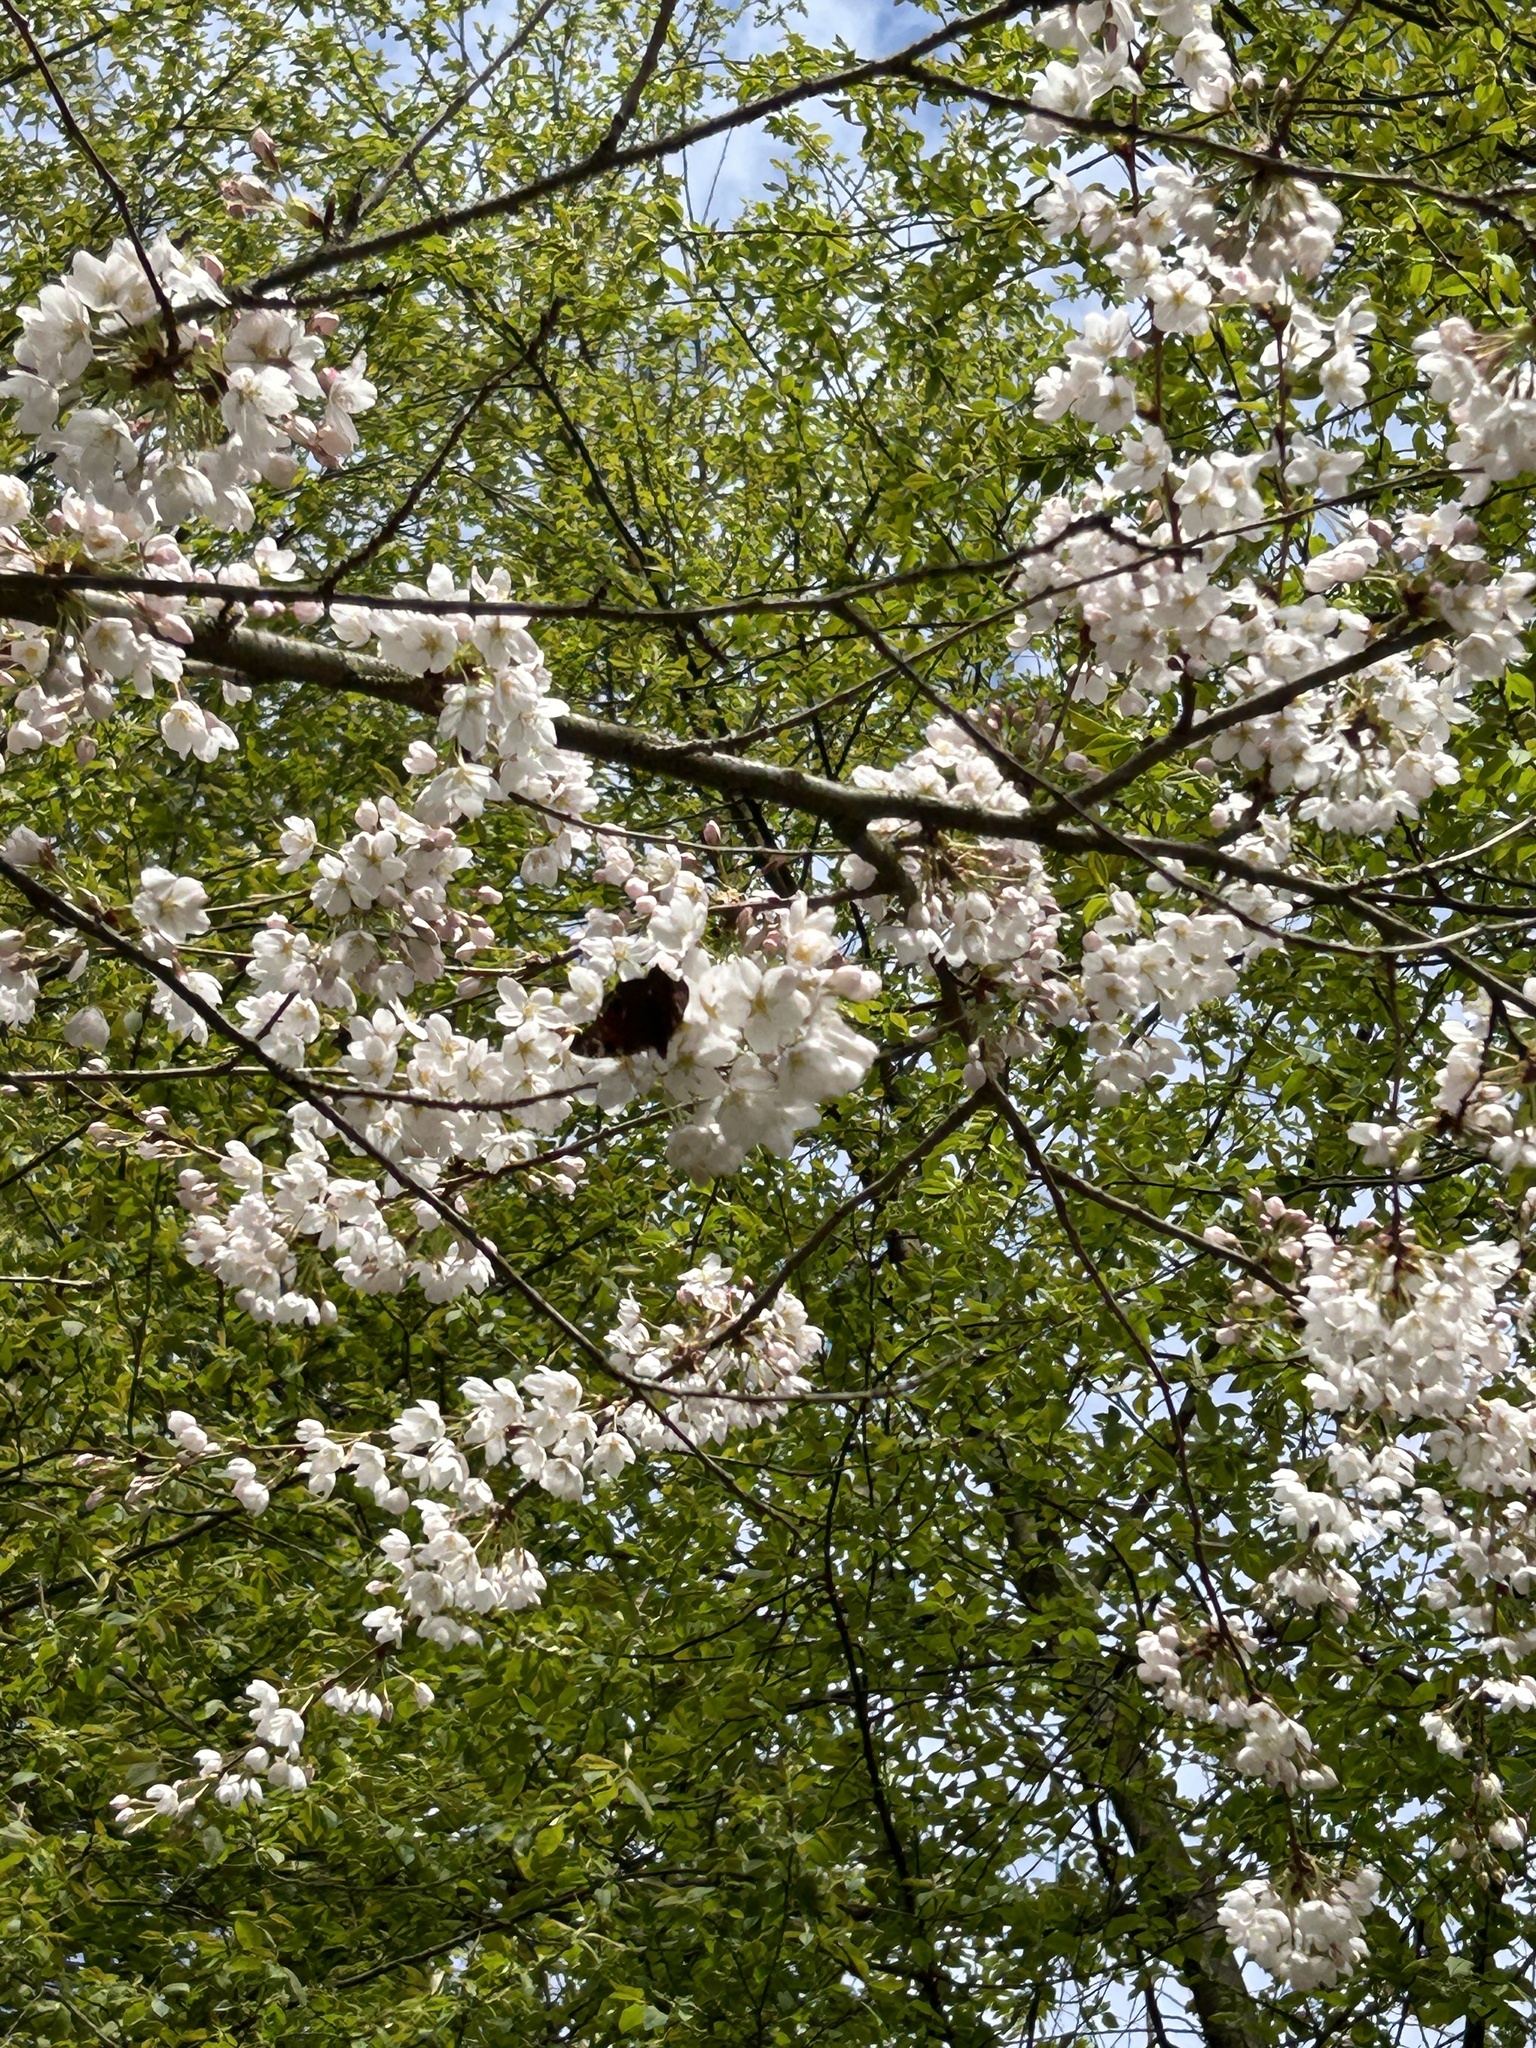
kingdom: Animalia
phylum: Arthropoda
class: Insecta
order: Lepidoptera
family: Nymphalidae
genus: Aglais
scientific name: Aglais io
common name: Peacock
